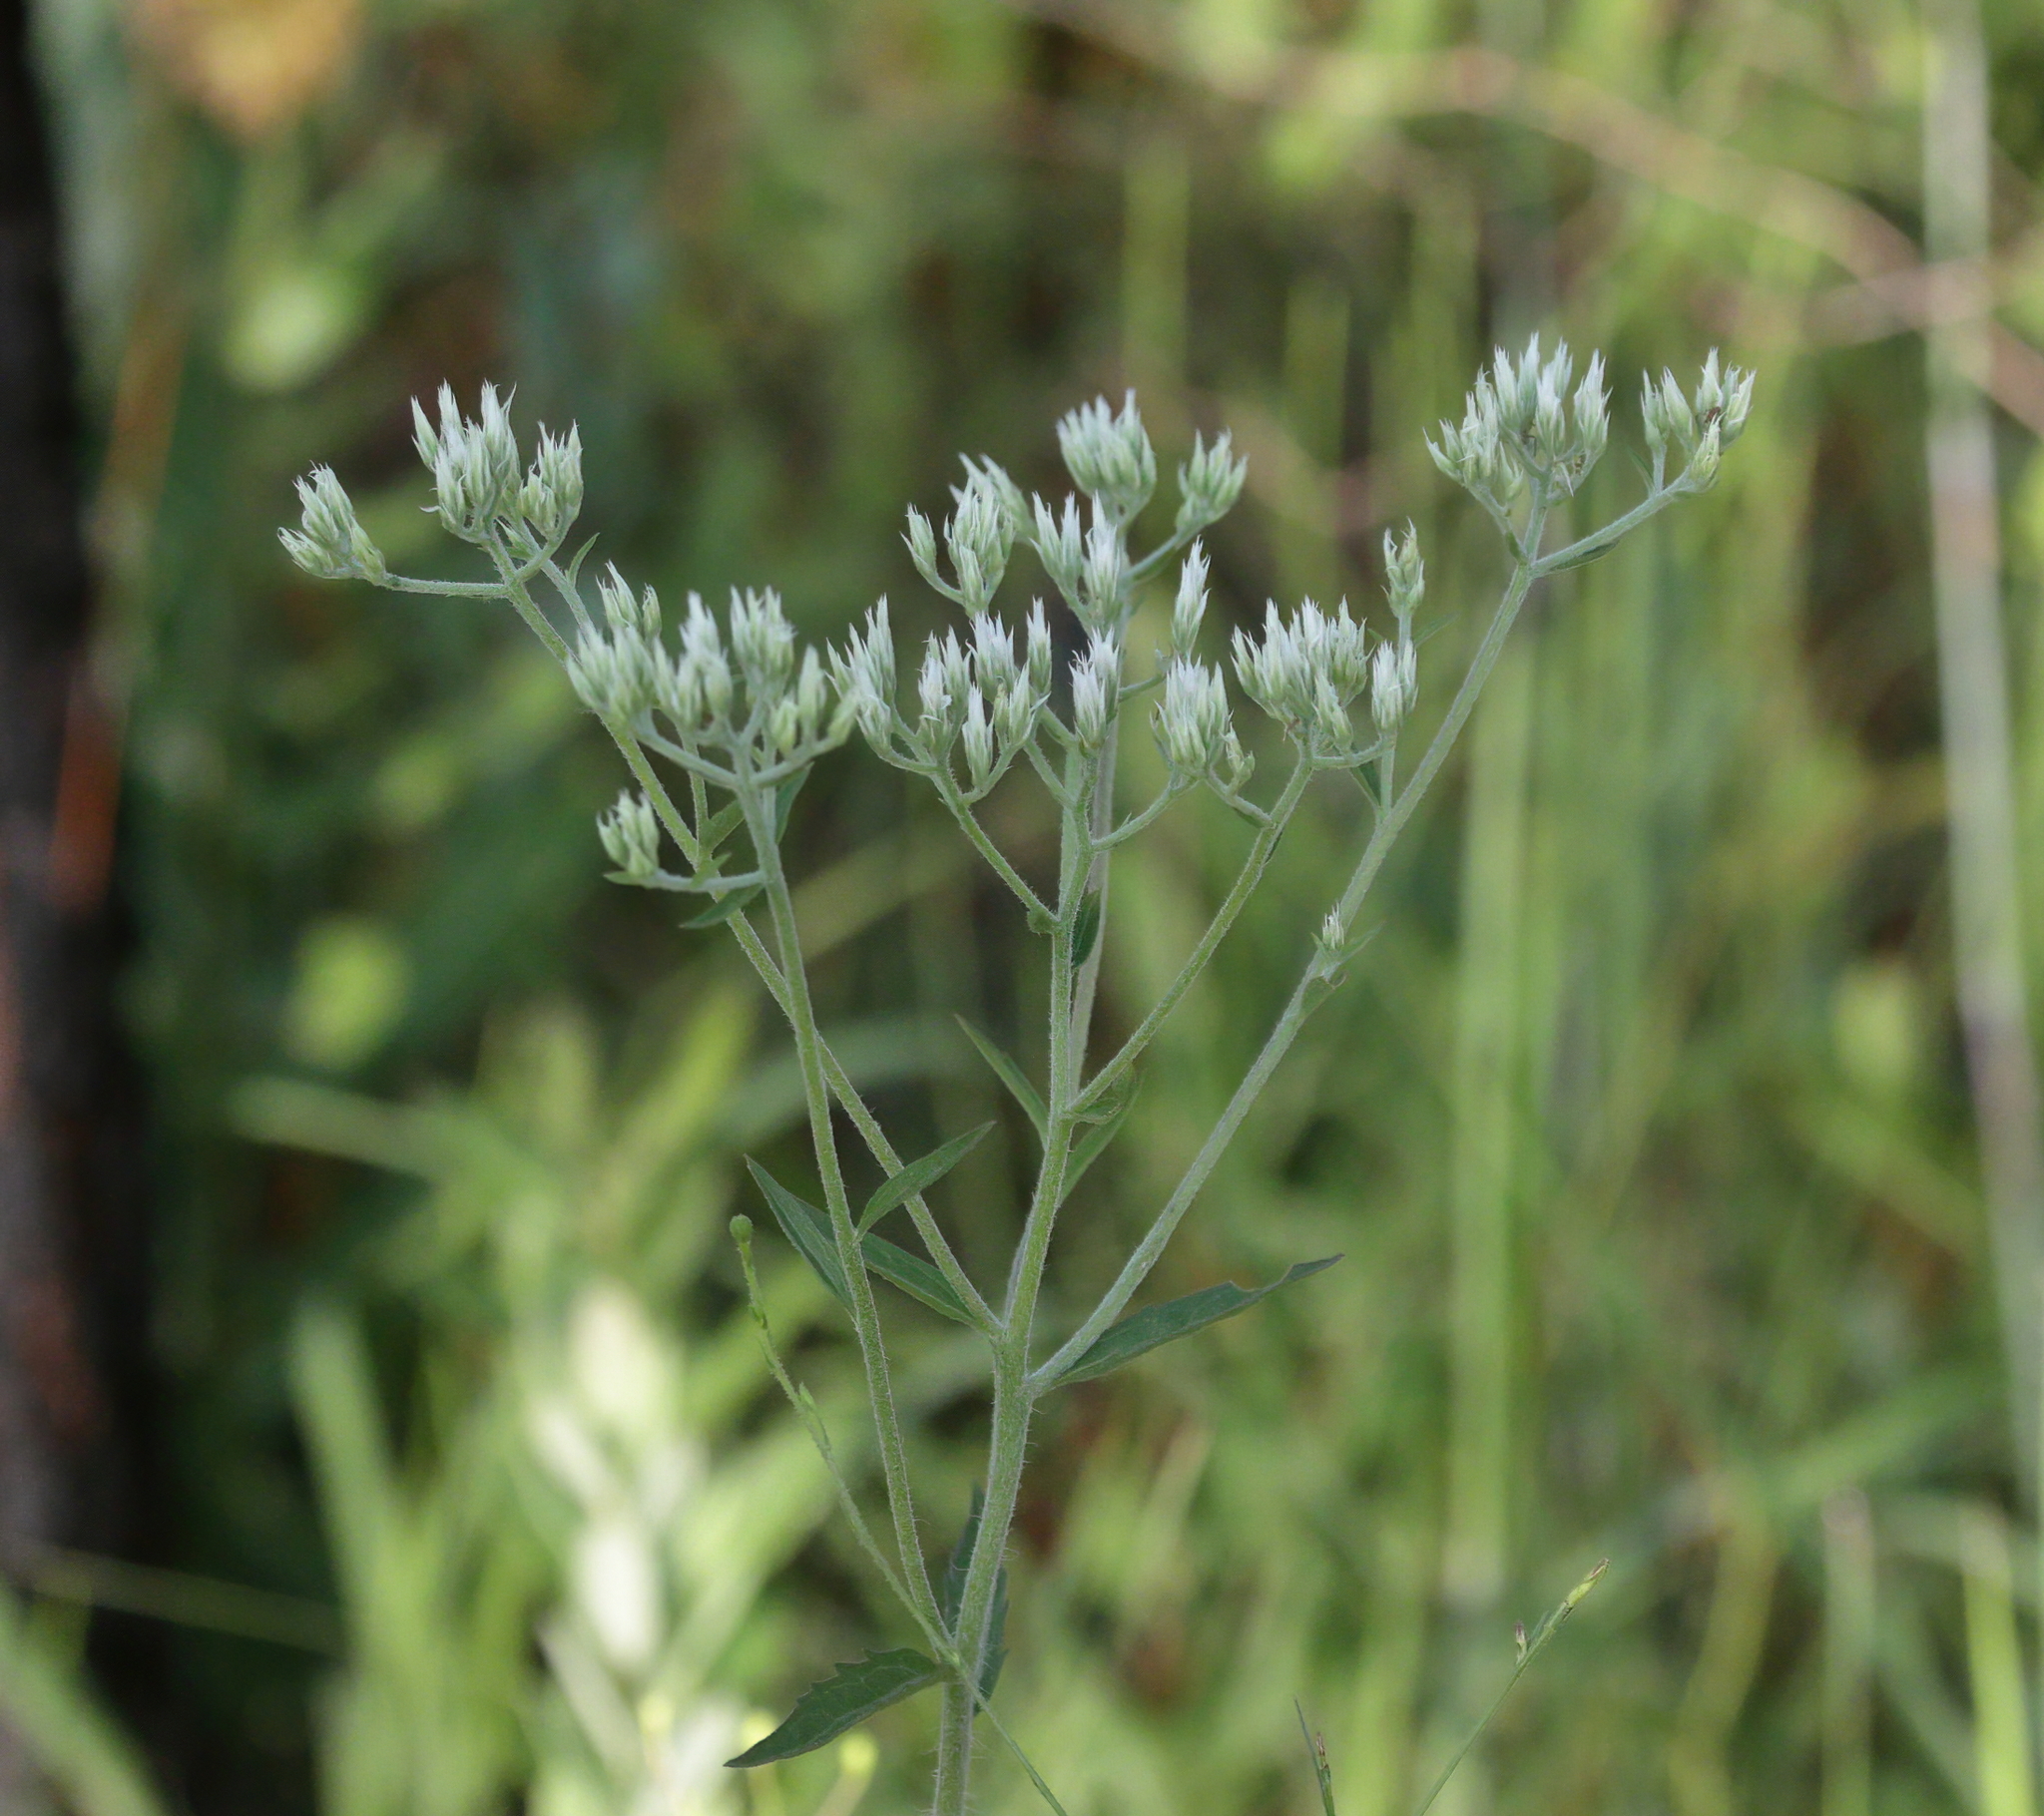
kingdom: Plantae
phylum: Tracheophyta
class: Magnoliopsida
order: Asterales
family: Asteraceae
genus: Eupatorium
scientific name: Eupatorium album
